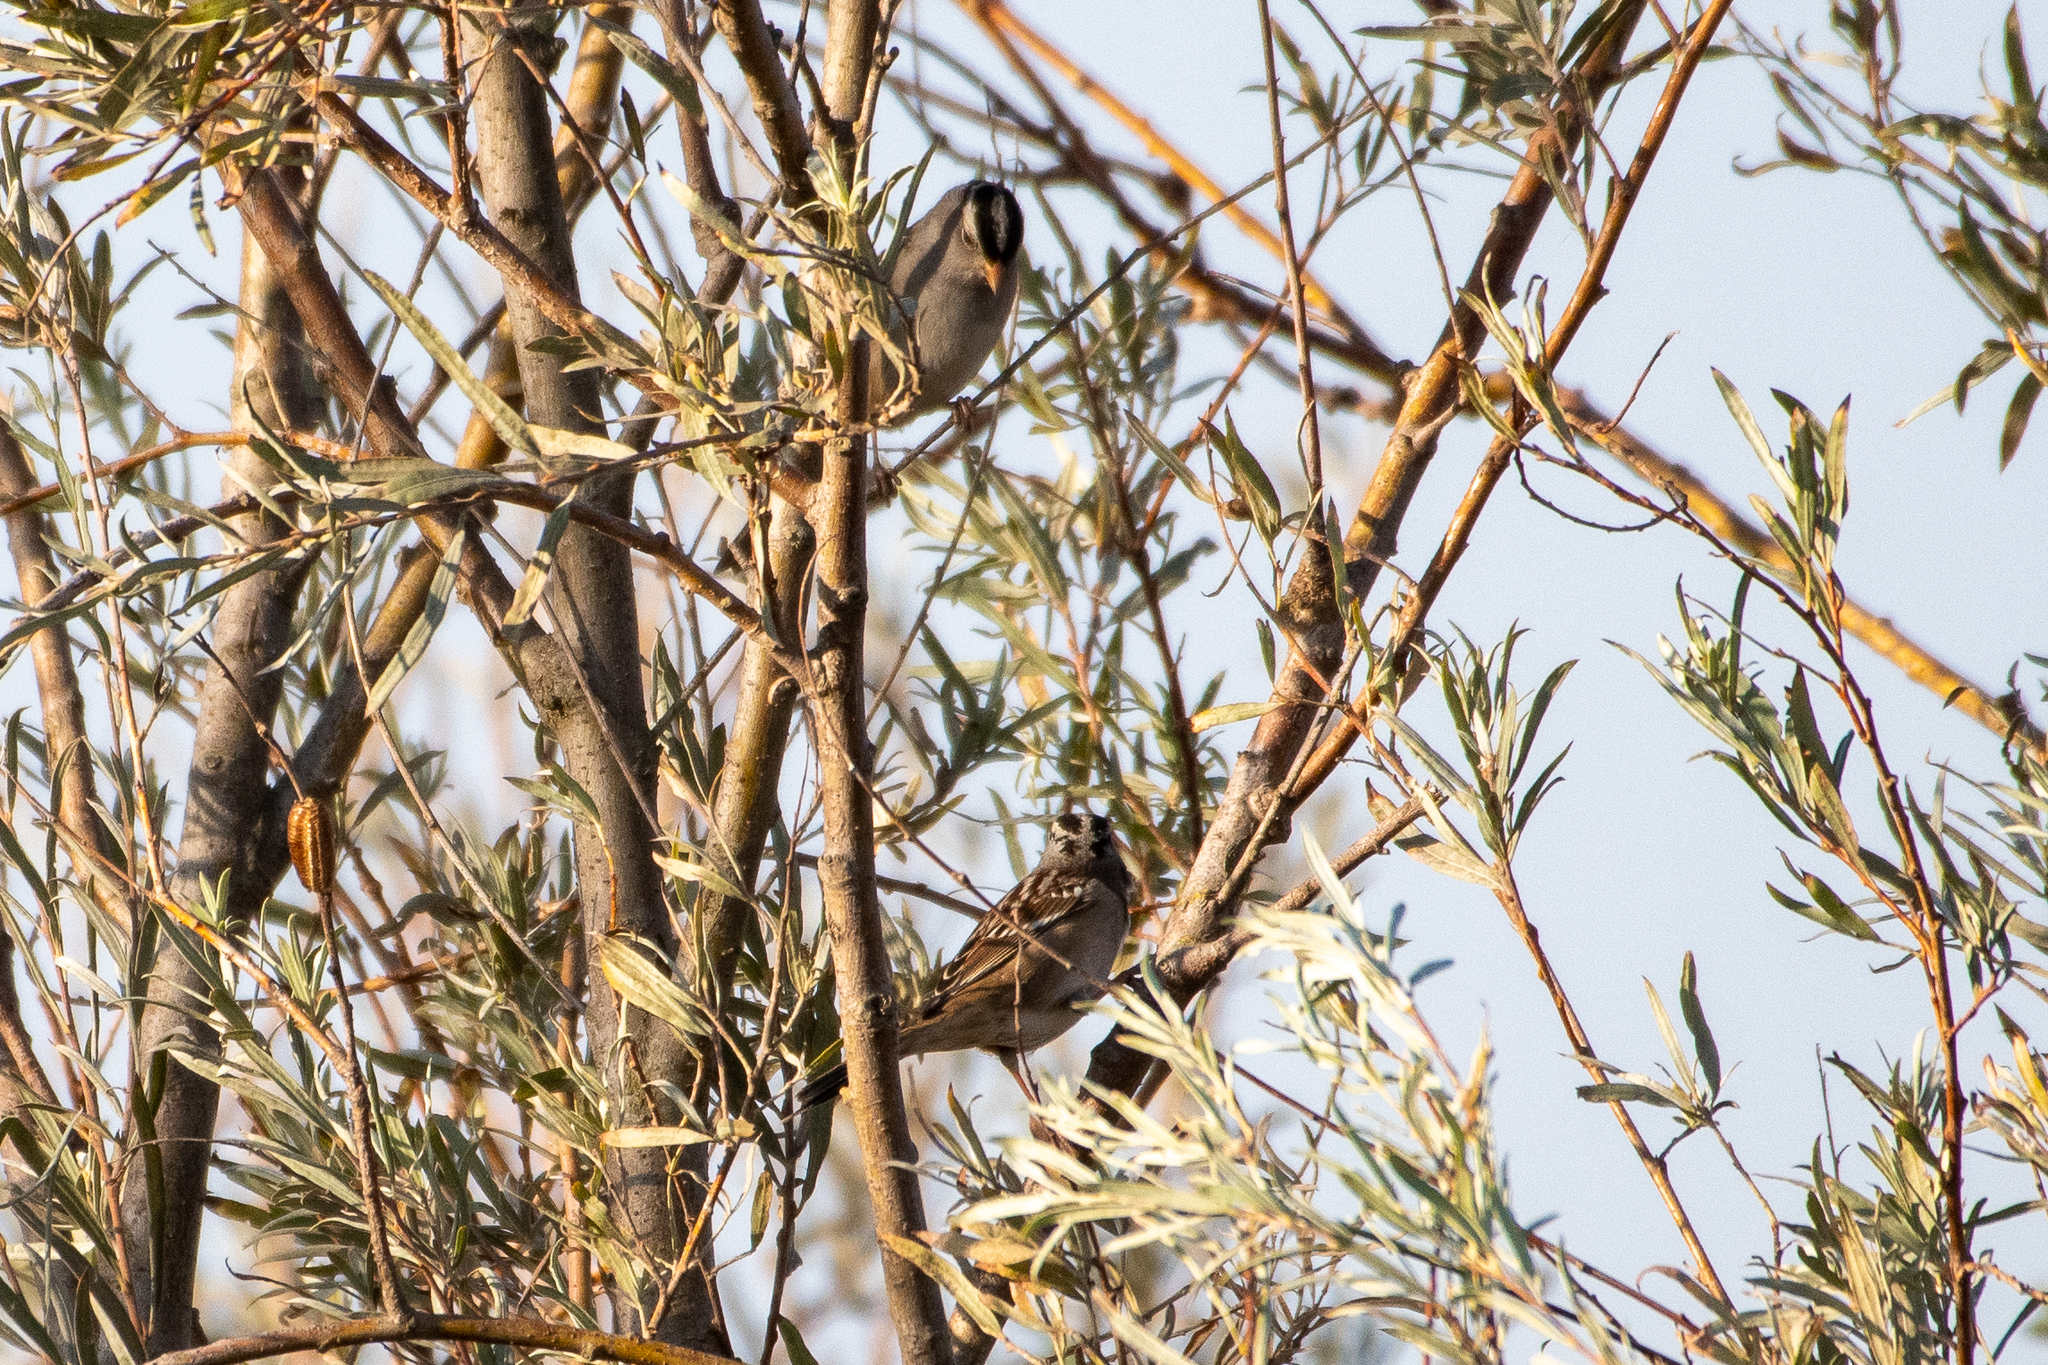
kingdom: Animalia
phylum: Chordata
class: Aves
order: Passeriformes
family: Passerellidae
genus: Zonotrichia
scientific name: Zonotrichia leucophrys
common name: White-crowned sparrow
